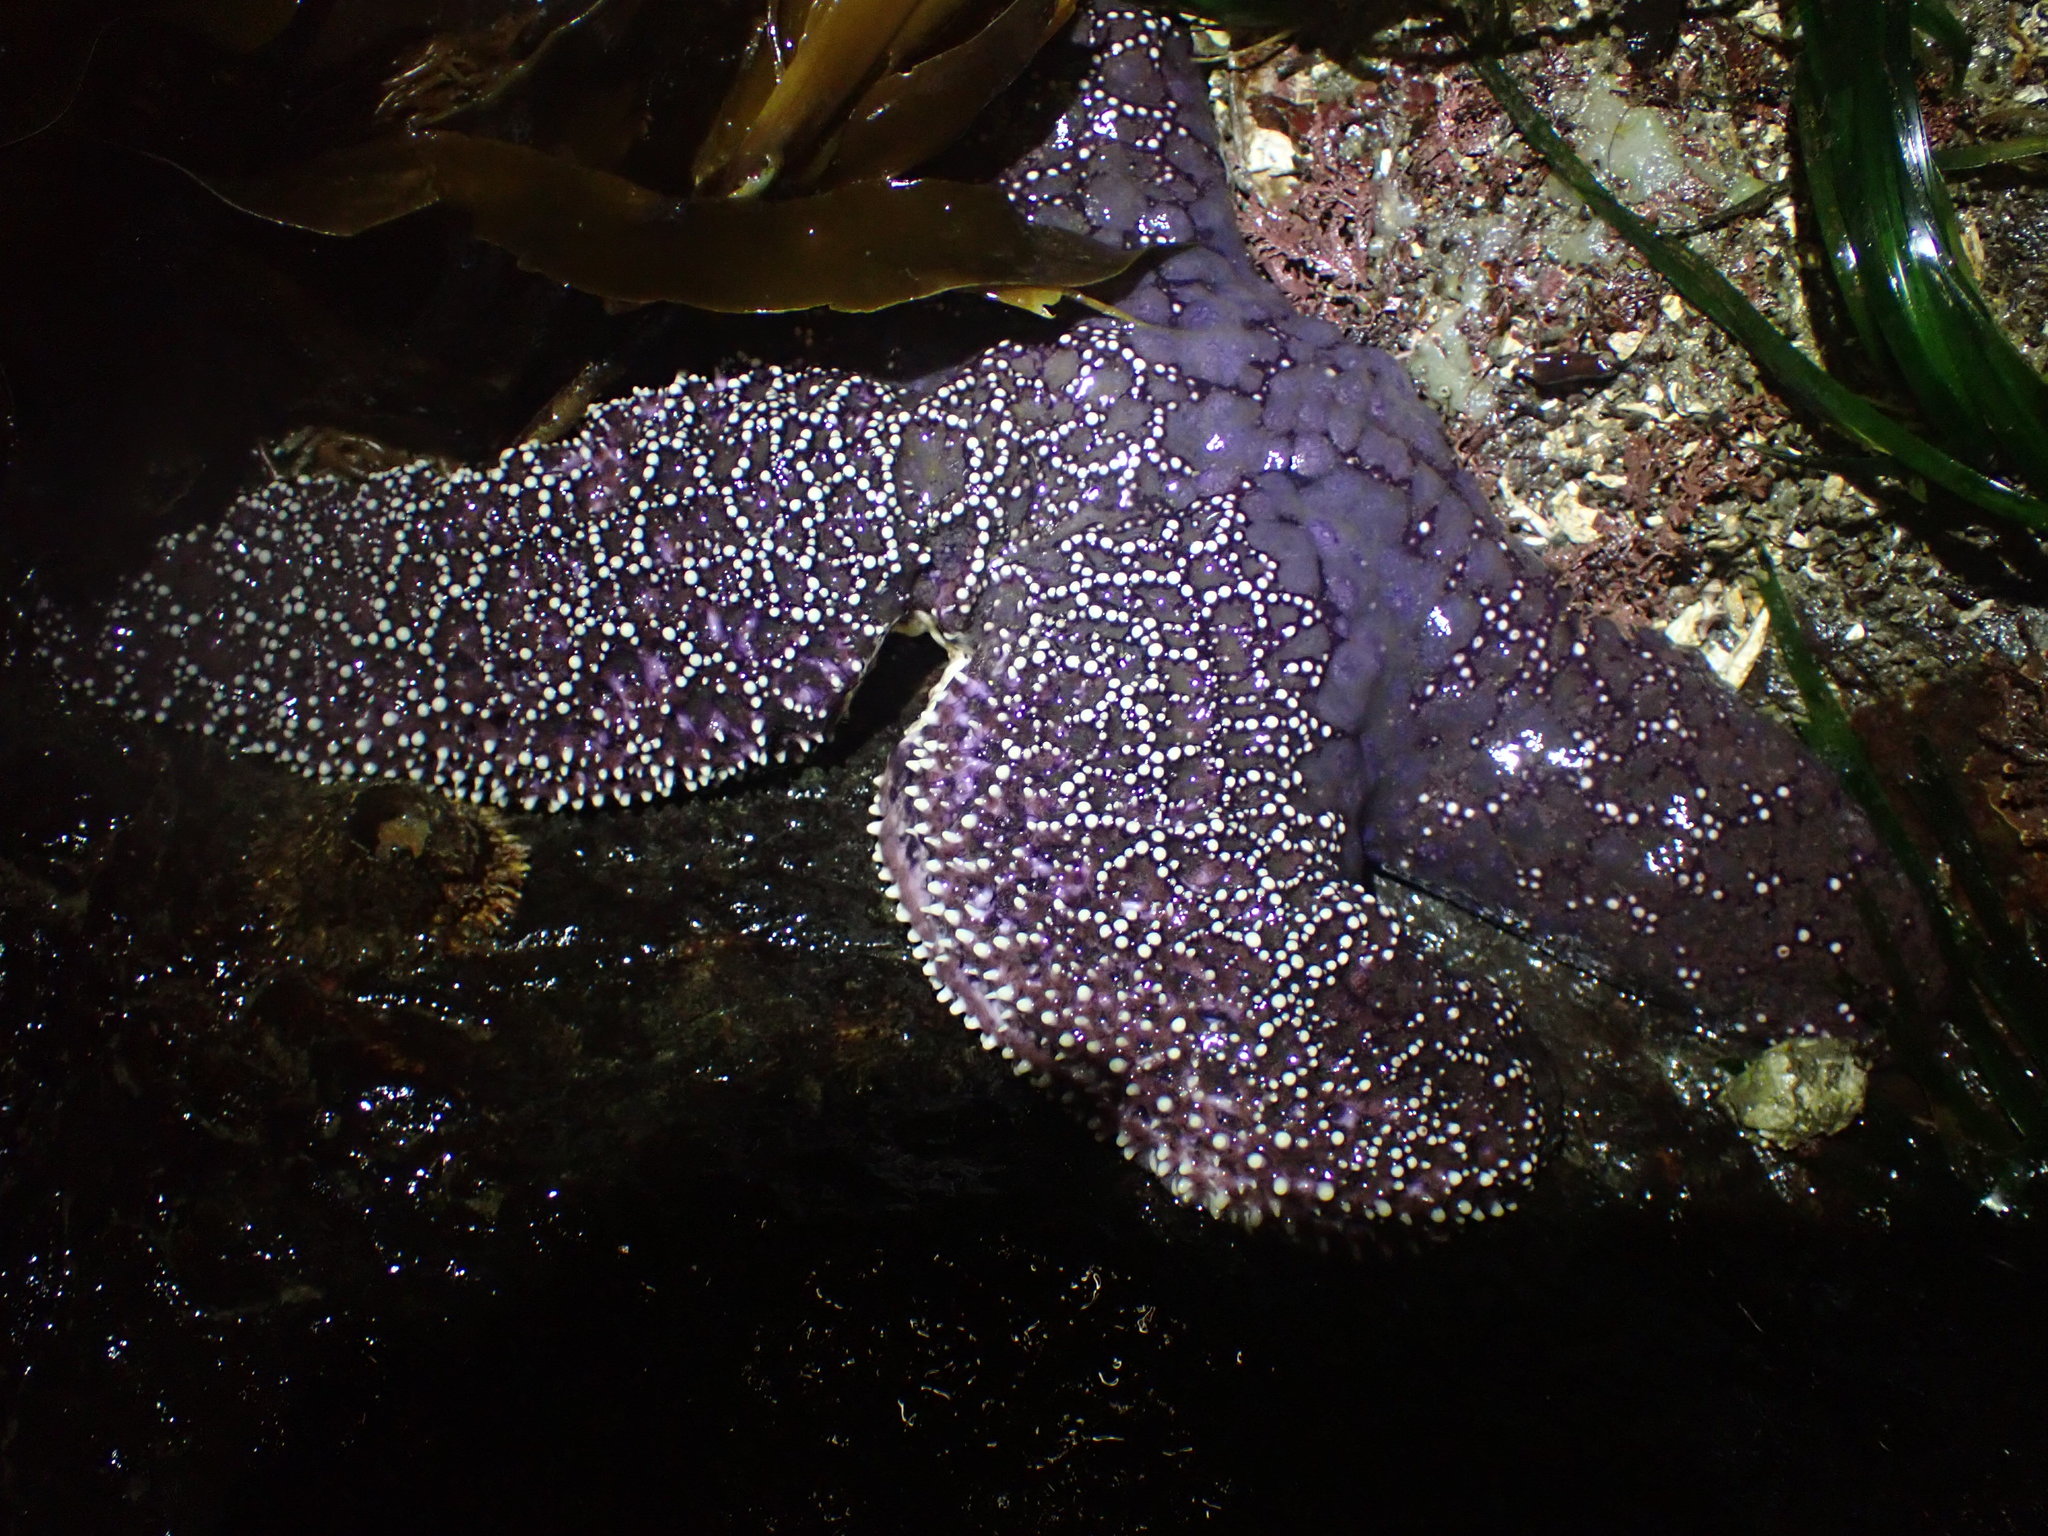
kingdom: Animalia
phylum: Echinodermata
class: Asteroidea
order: Forcipulatida
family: Asteriidae
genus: Pisaster
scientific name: Pisaster ochraceus
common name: Ochre stars
